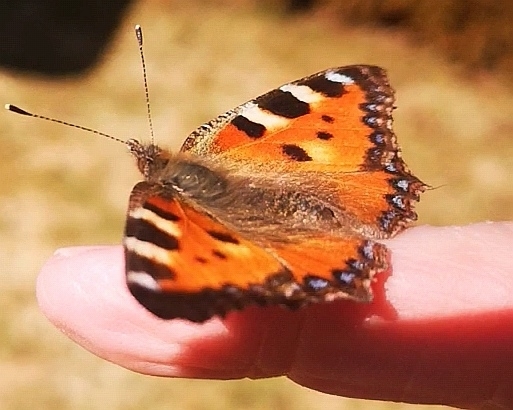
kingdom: Animalia
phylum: Arthropoda
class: Insecta
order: Lepidoptera
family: Nymphalidae
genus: Aglais
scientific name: Aglais urticae
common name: Small tortoiseshell
